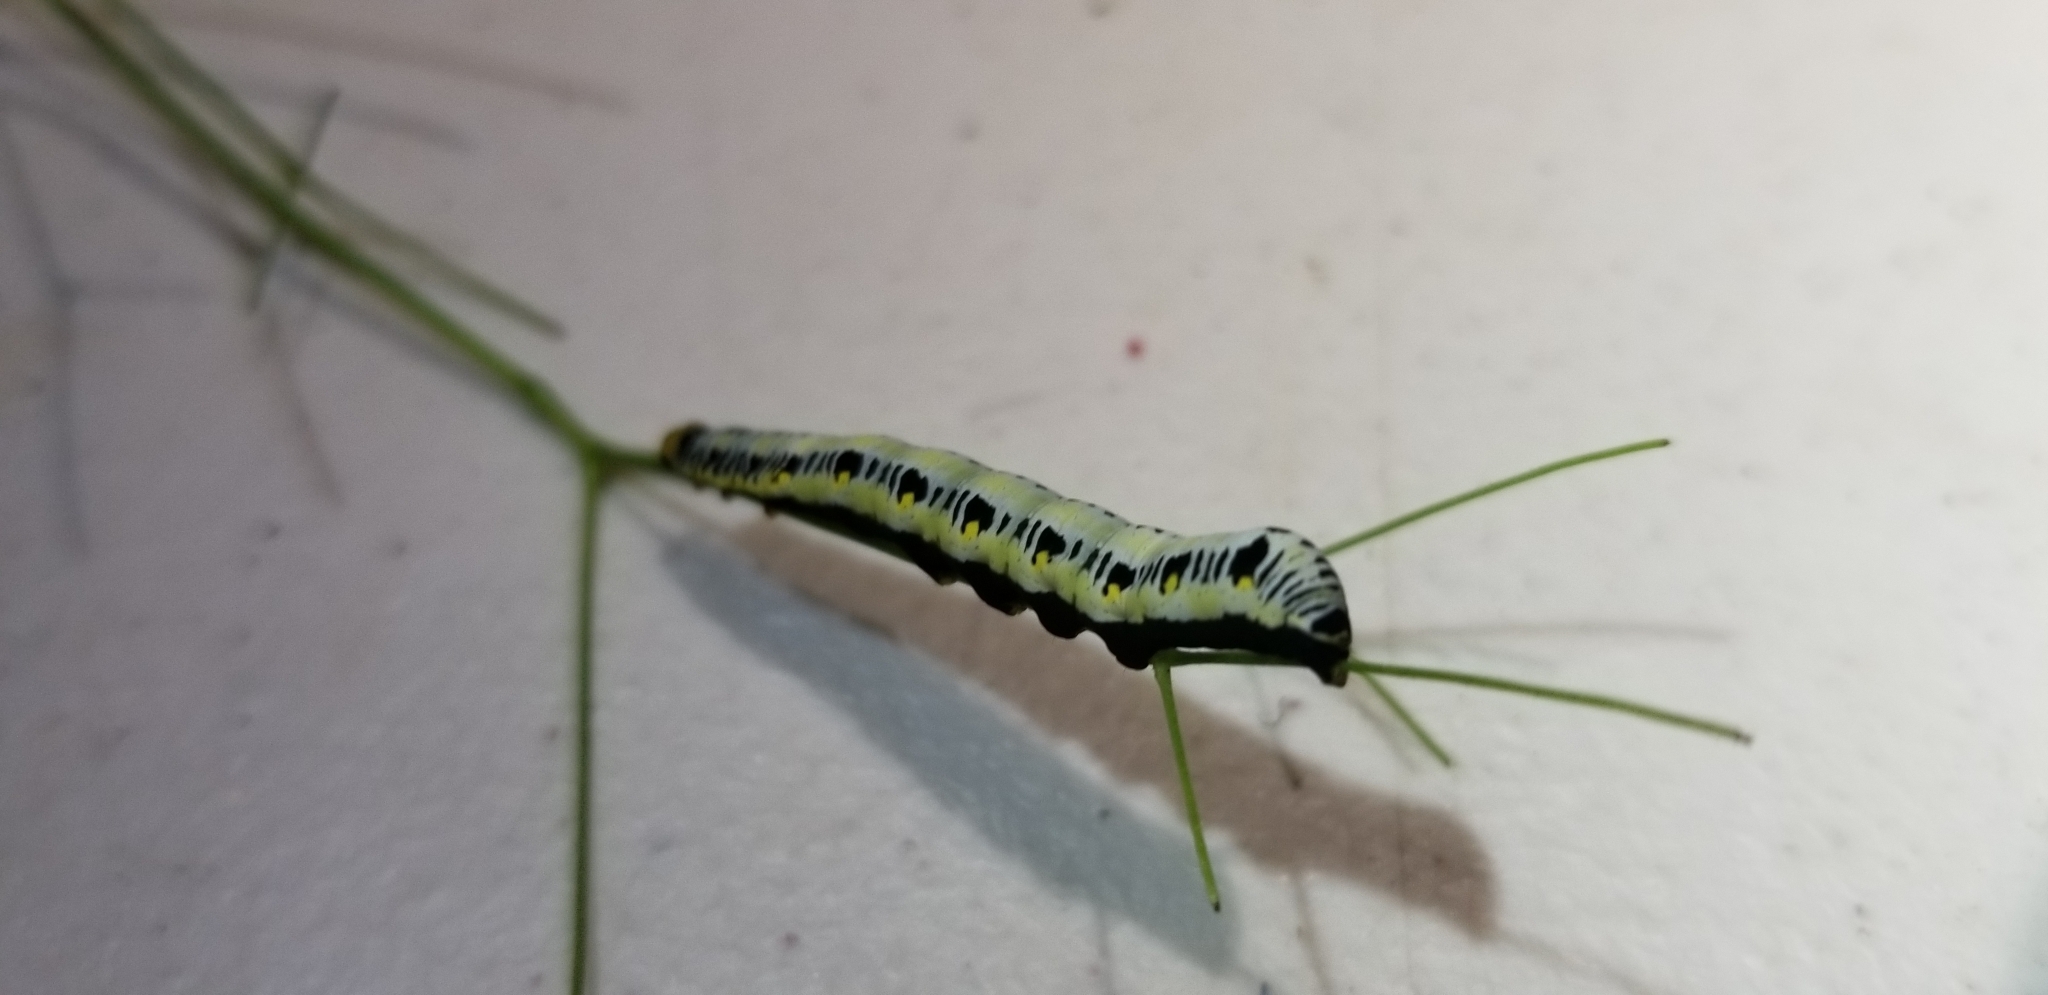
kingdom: Animalia
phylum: Arthropoda
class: Insecta
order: Lepidoptera
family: Erebidae
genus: Calyptra
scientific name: Calyptra canadensis
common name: Canadian owlet
